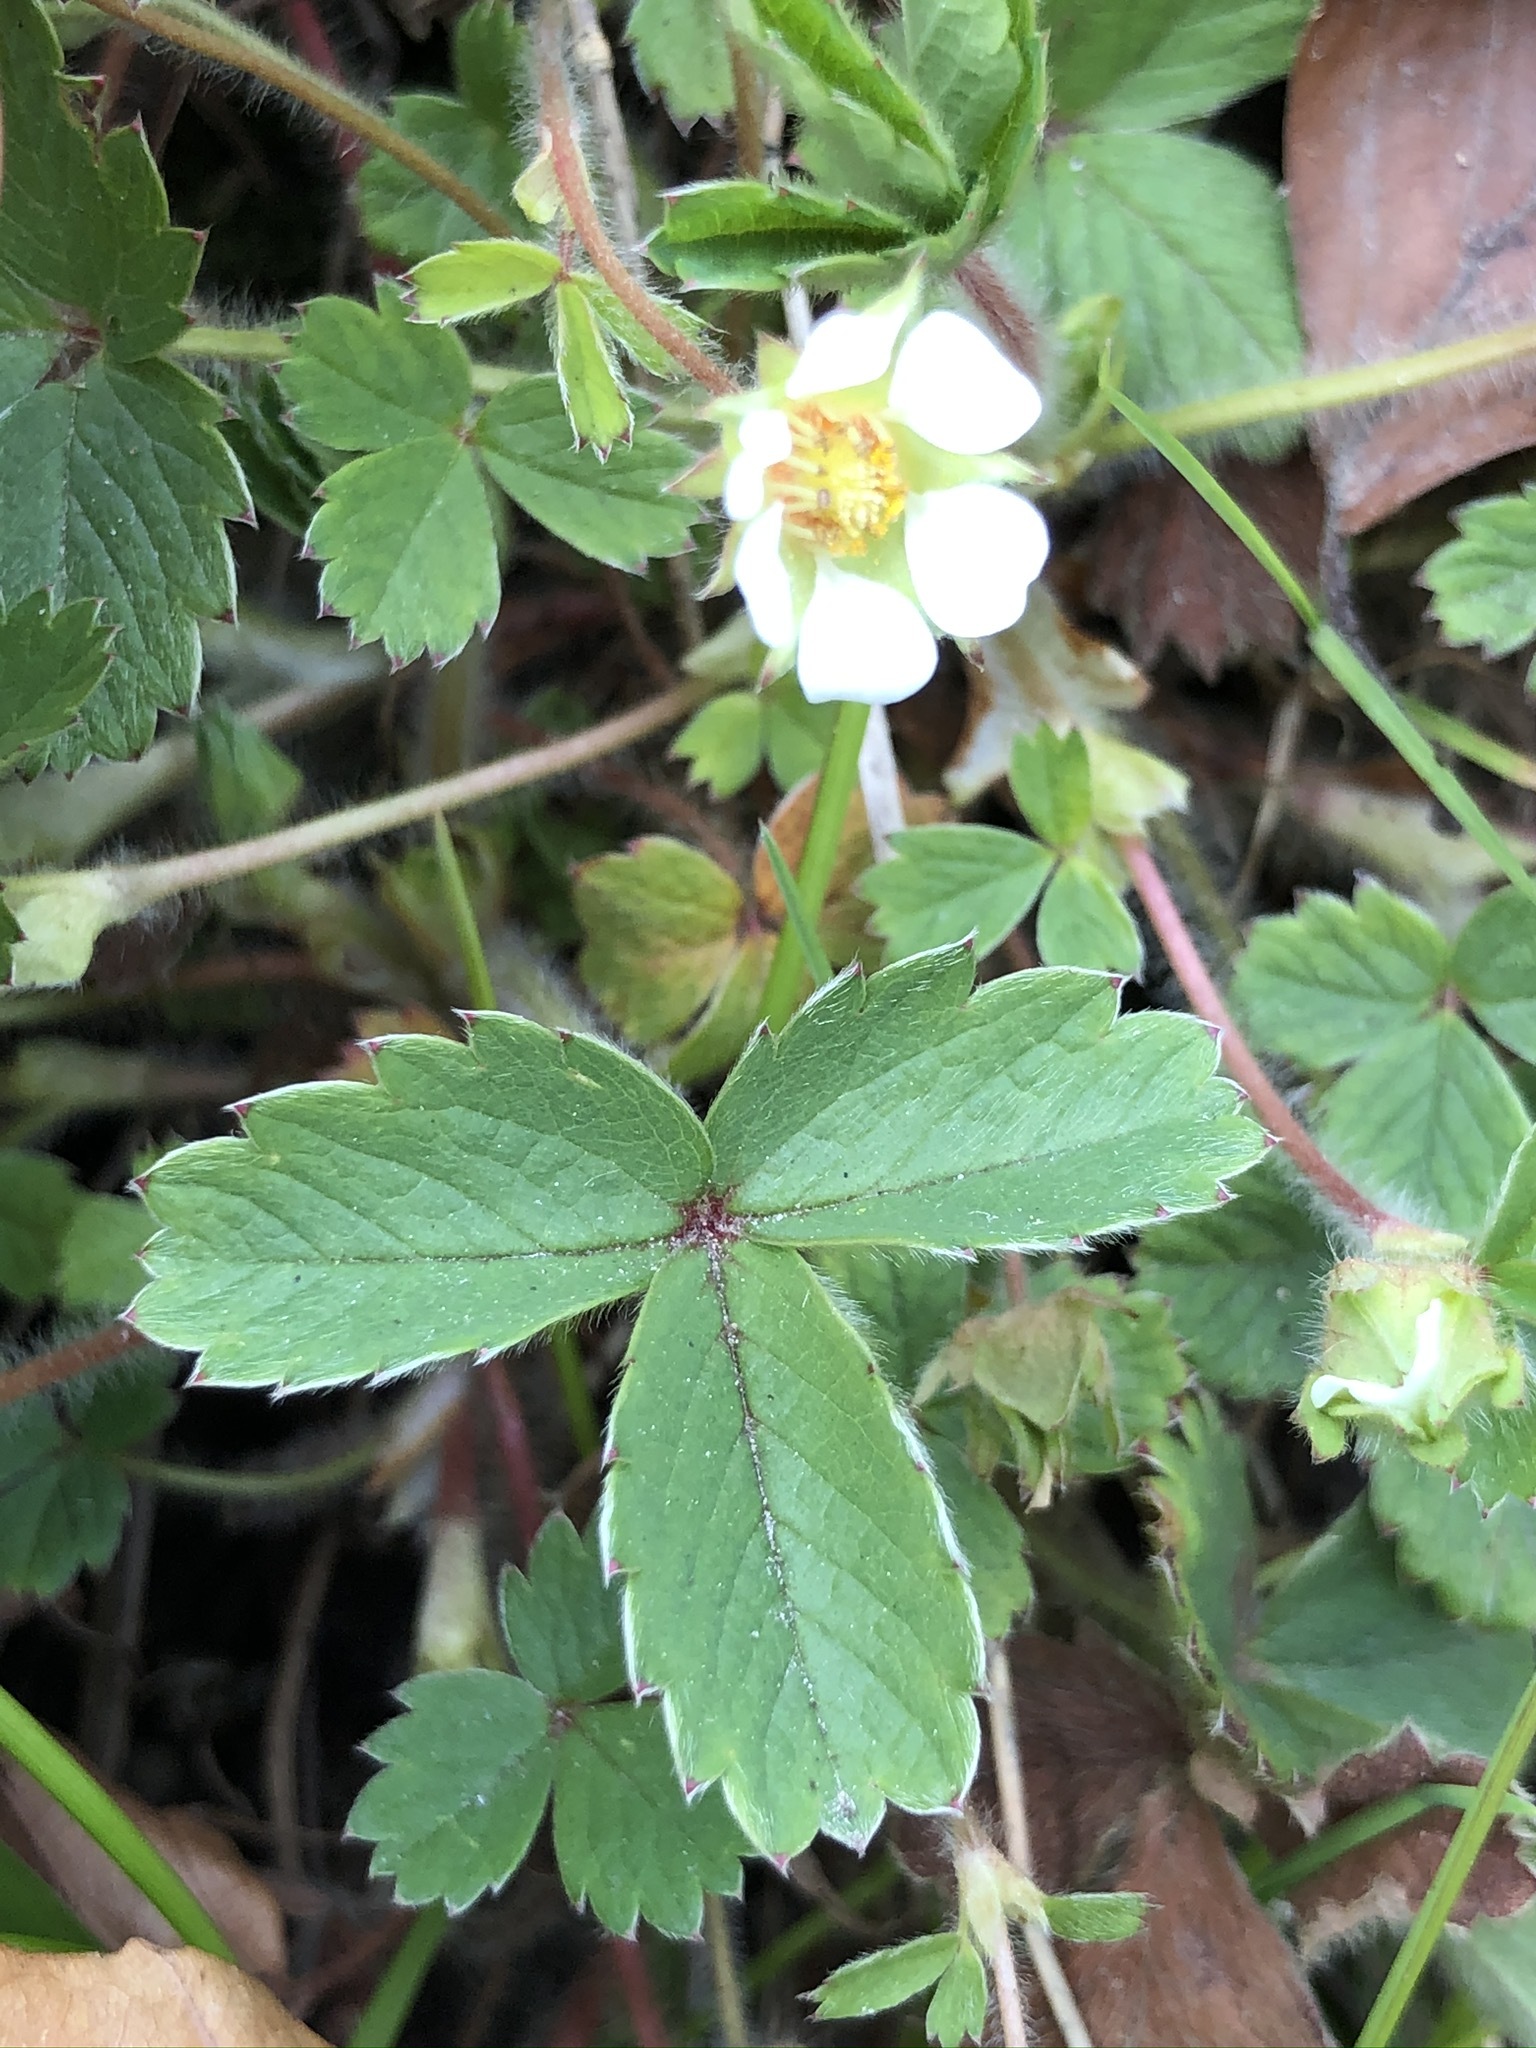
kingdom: Plantae
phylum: Tracheophyta
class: Magnoliopsida
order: Rosales
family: Rosaceae
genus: Potentilla
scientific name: Potentilla sterilis
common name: Barren strawberry
